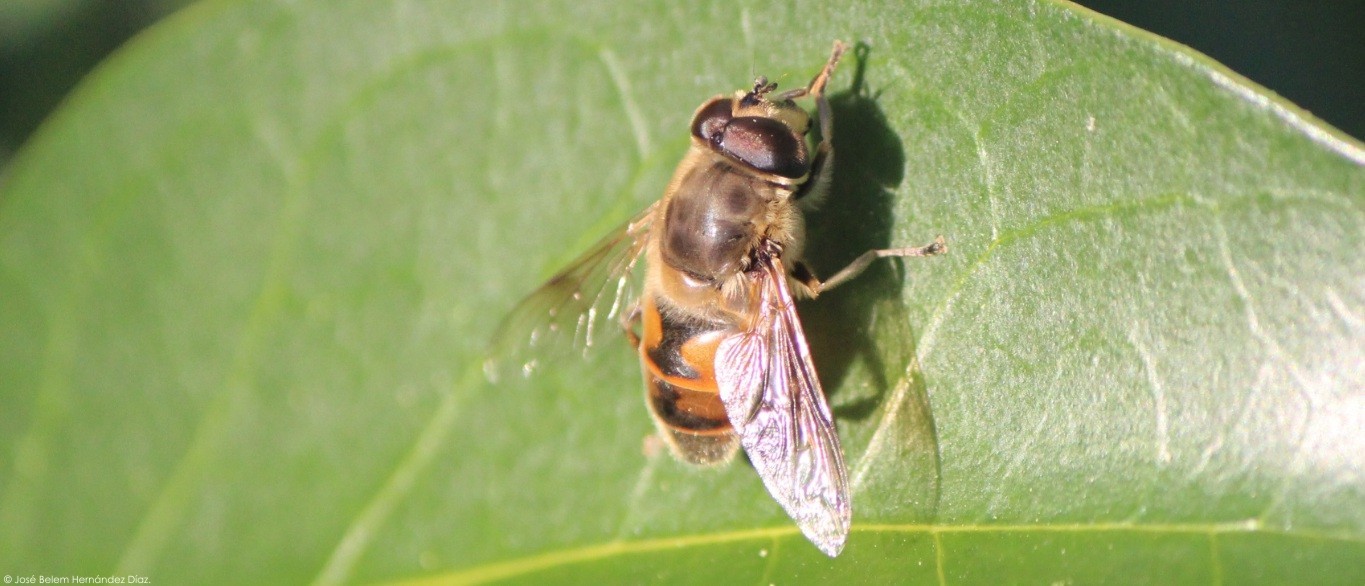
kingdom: Animalia
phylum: Arthropoda
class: Insecta
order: Diptera
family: Syrphidae
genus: Eristalis
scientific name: Eristalis tenax
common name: Drone fly
